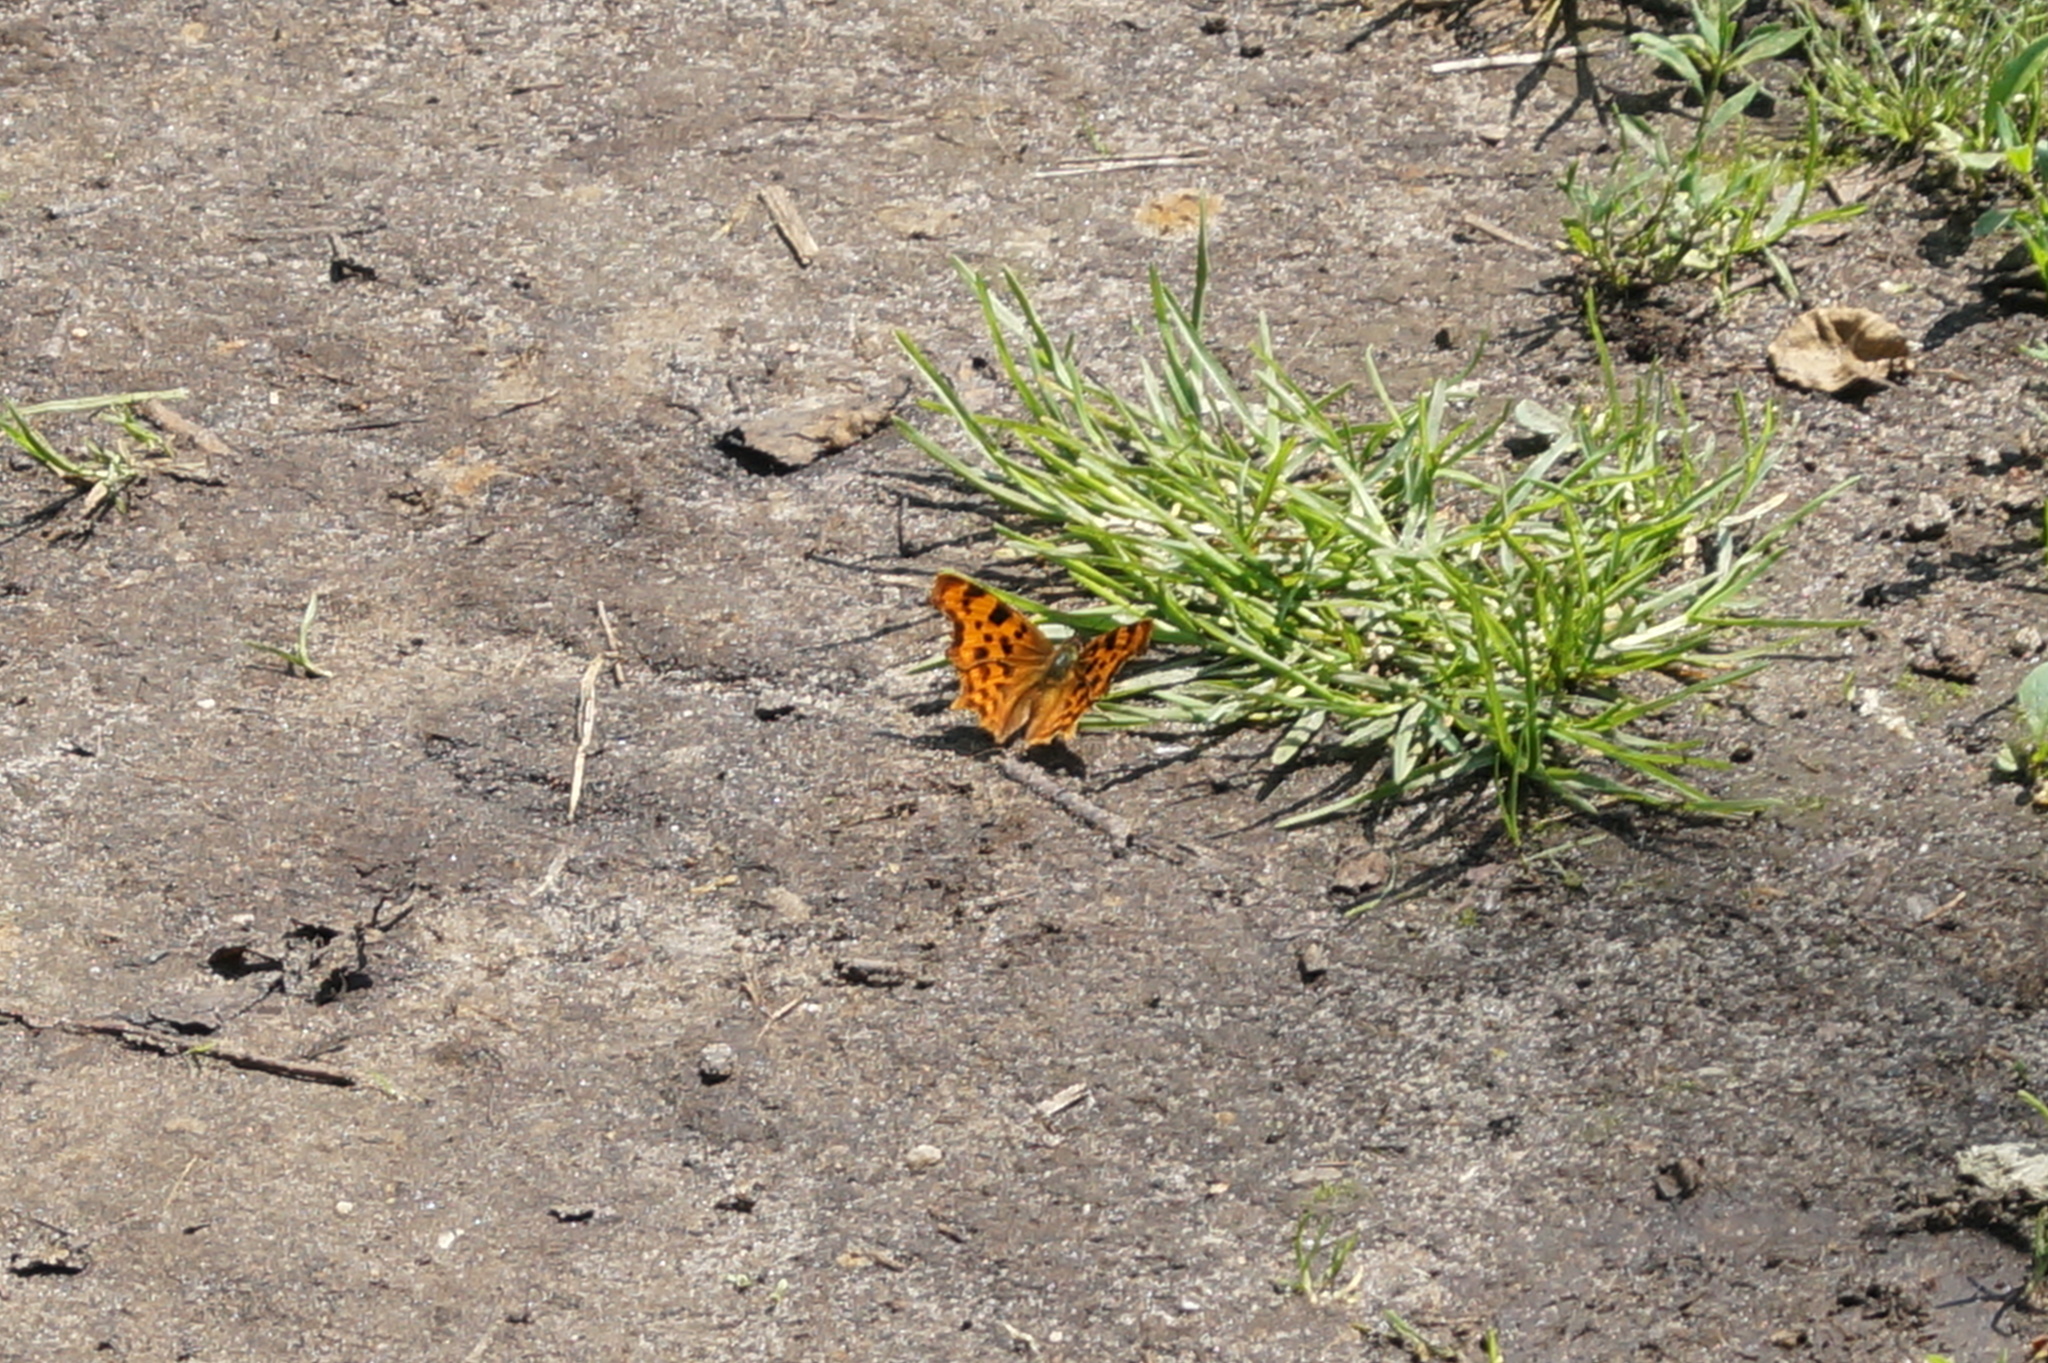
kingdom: Animalia
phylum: Arthropoda
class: Insecta
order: Lepidoptera
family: Nymphalidae
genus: Polygonia
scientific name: Polygonia c-album
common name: Comma
